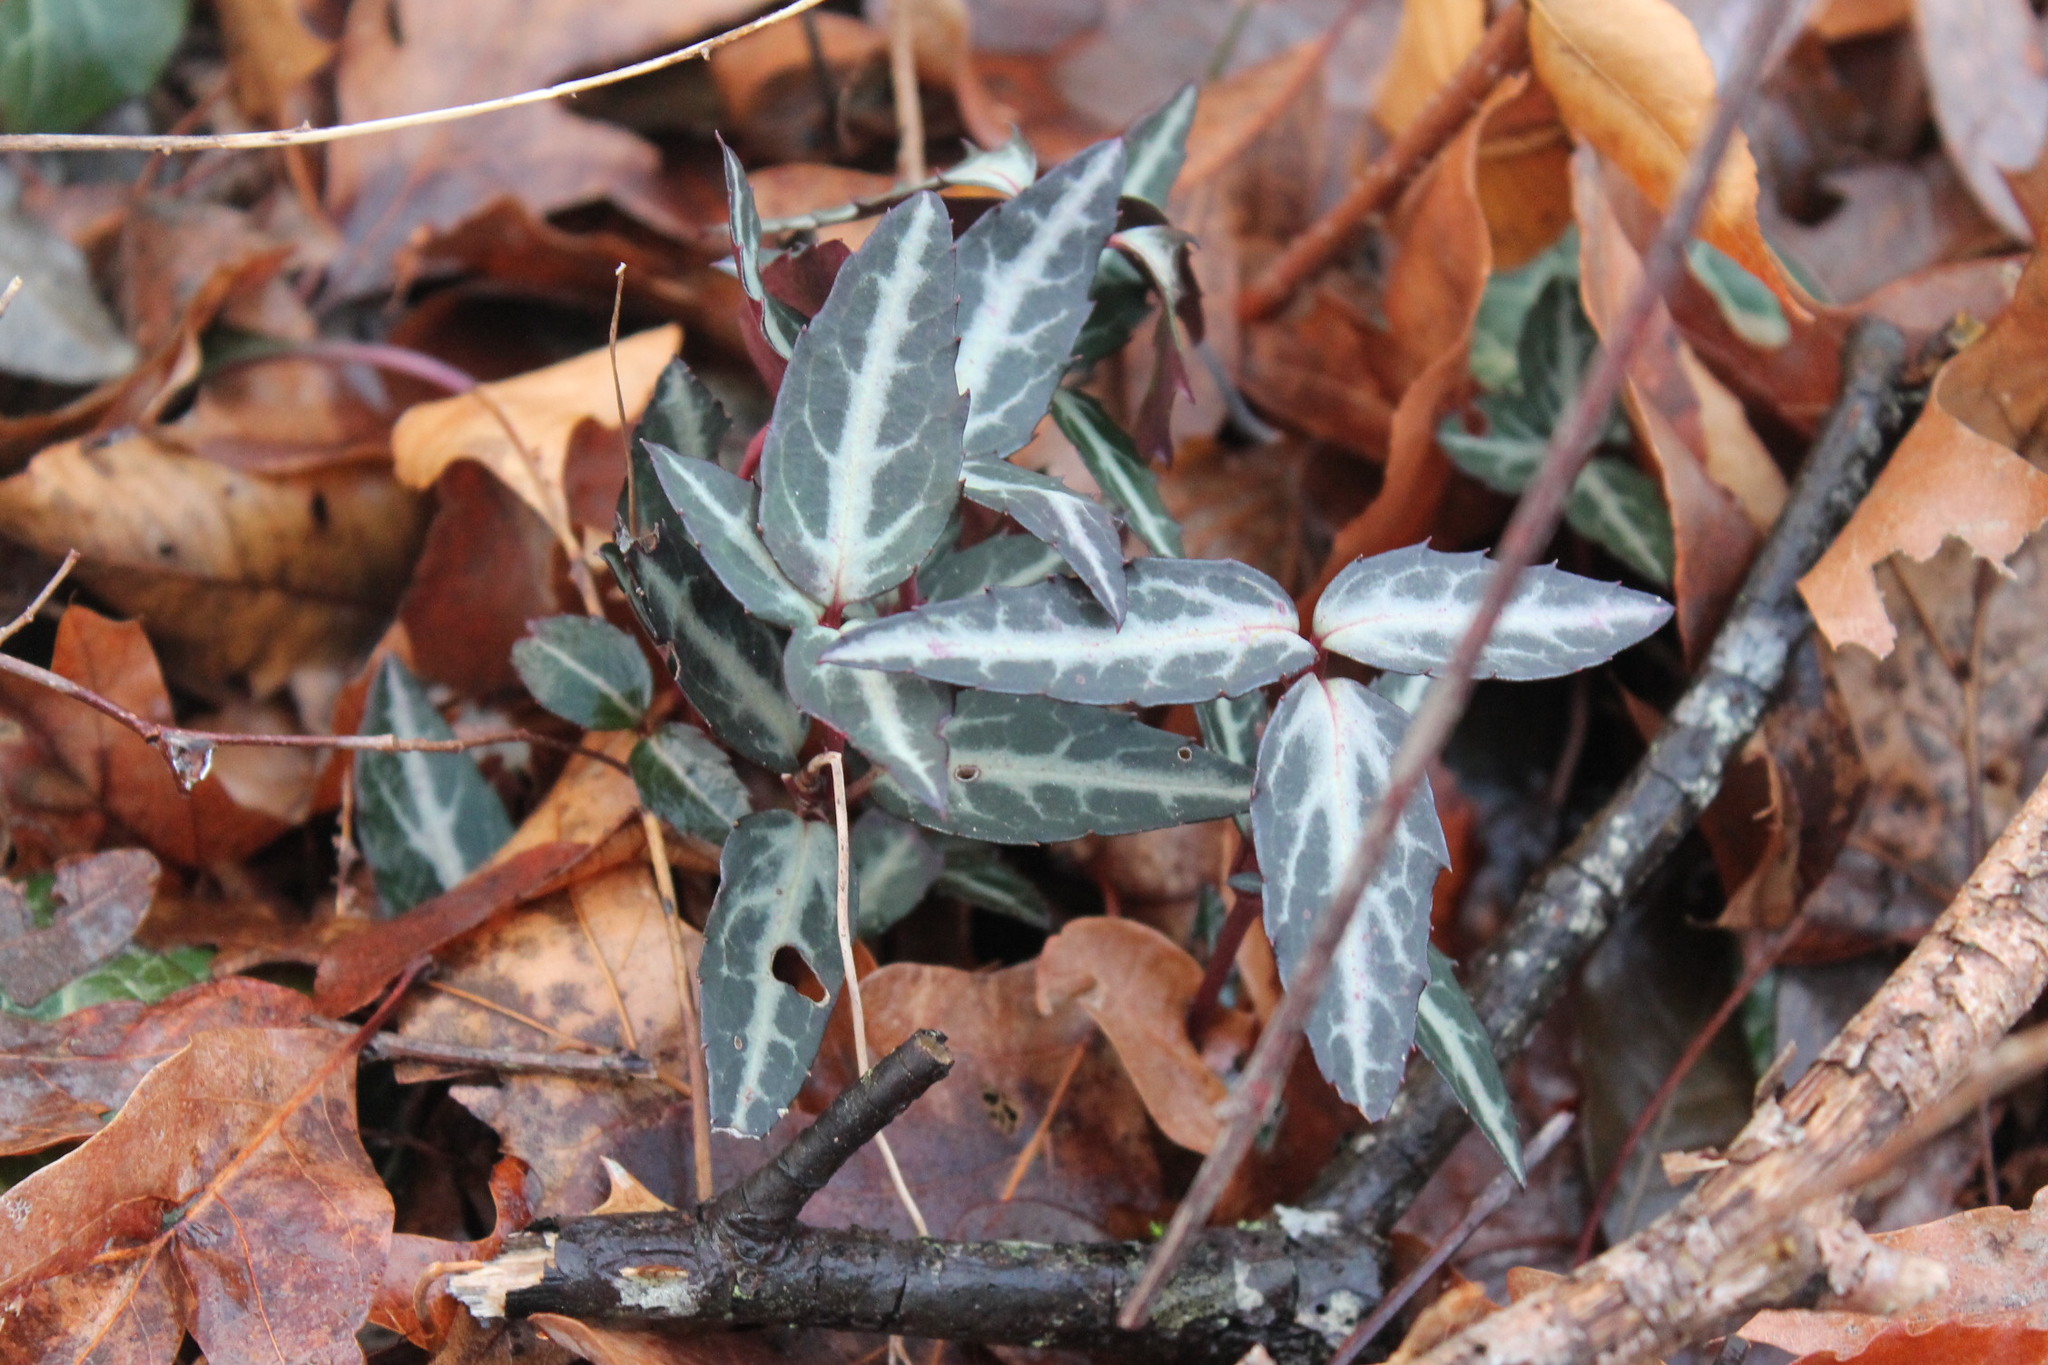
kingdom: Plantae
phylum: Tracheophyta
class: Magnoliopsida
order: Ericales
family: Ericaceae
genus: Chimaphila
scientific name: Chimaphila maculata
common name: Spotted pipsissewa
